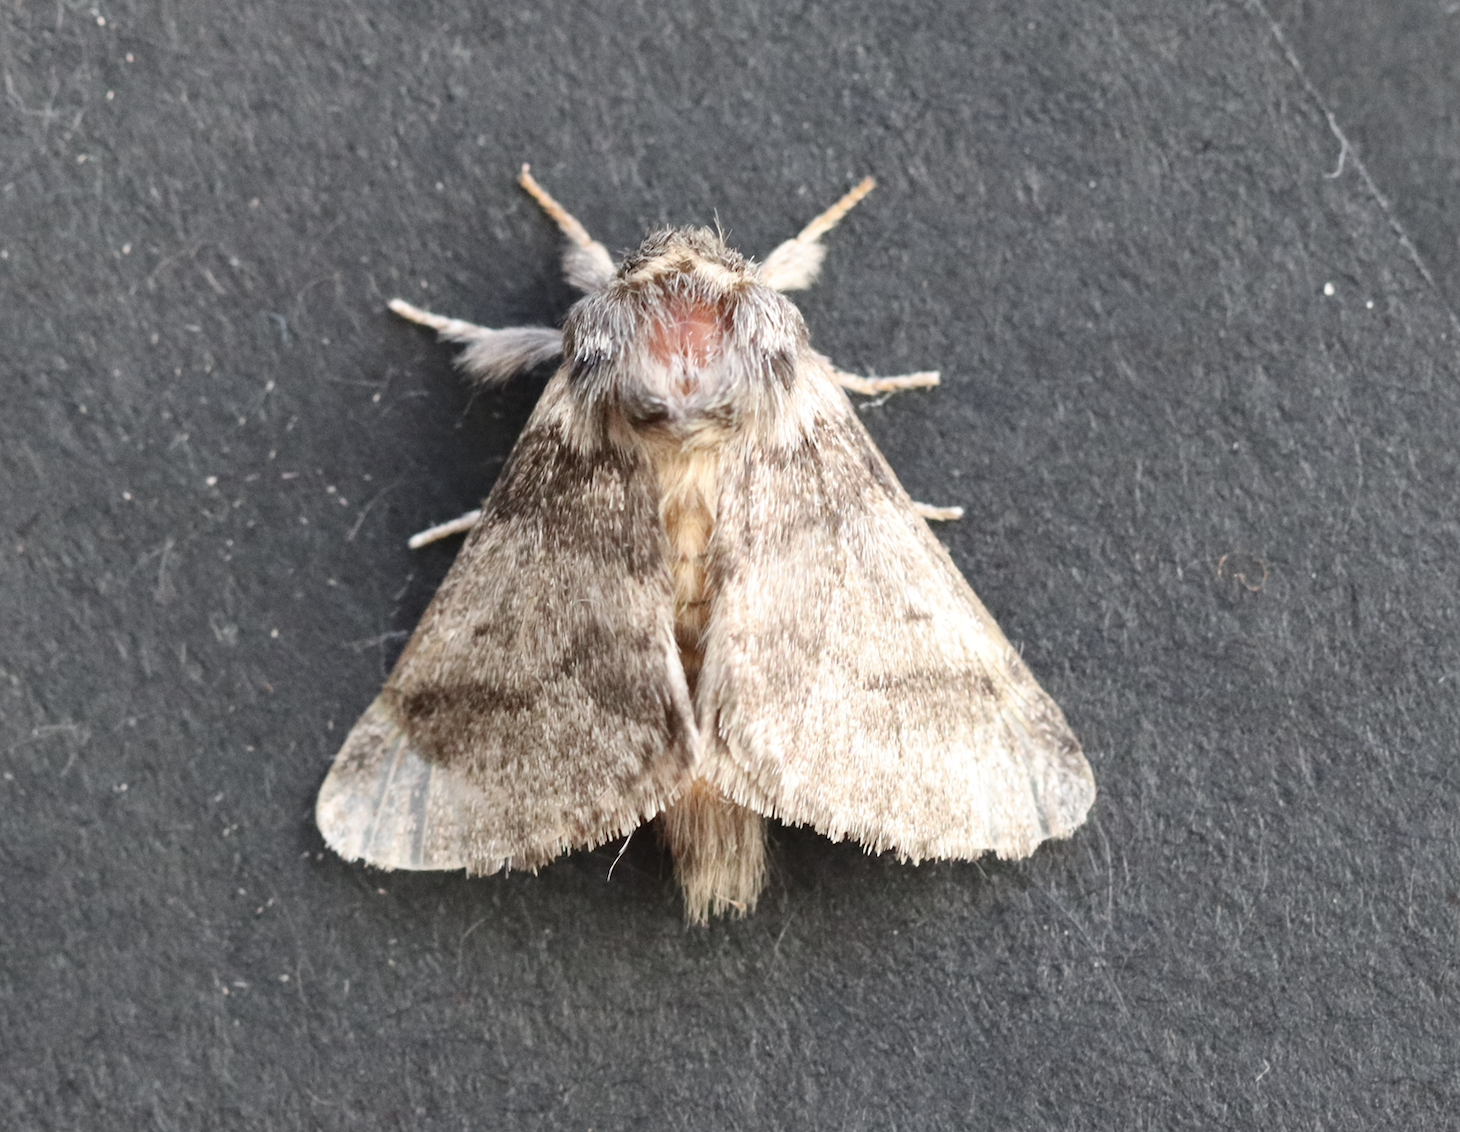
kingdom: Animalia
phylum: Arthropoda
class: Insecta
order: Lepidoptera
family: Notodontidae
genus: Thaumetopoea
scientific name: Thaumetopoea processionea
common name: Oak processionea
